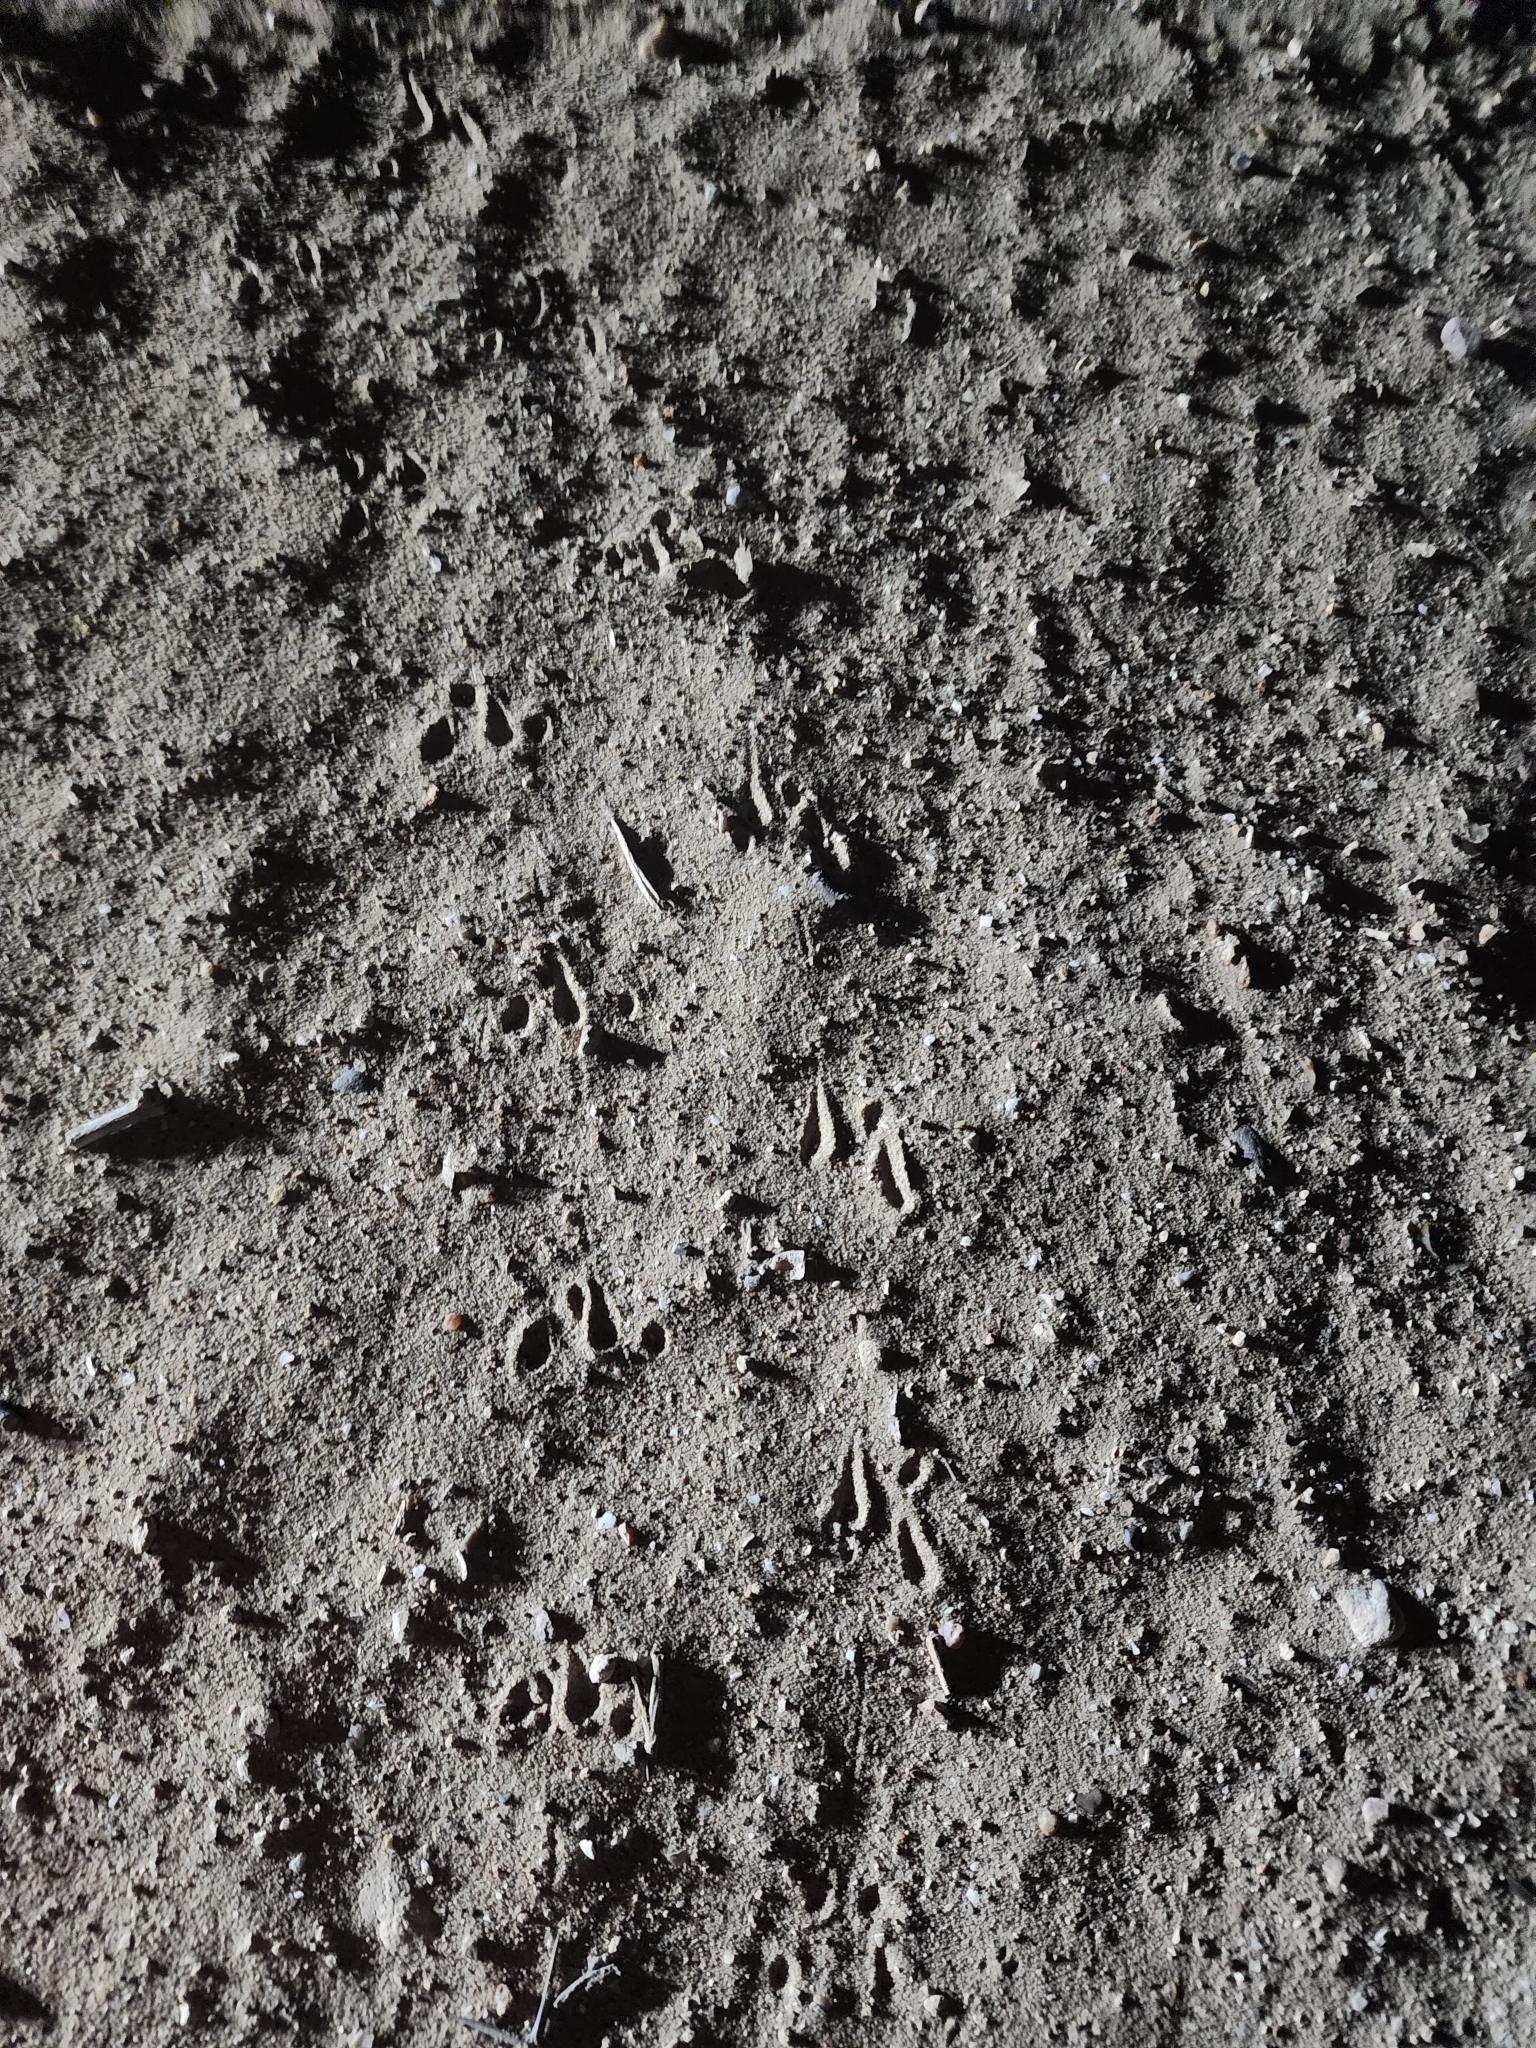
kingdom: Animalia
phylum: Arthropoda
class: Arachnida
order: Araneae
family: Theraphosidae
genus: Aphonopelma
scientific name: Aphonopelma anax
